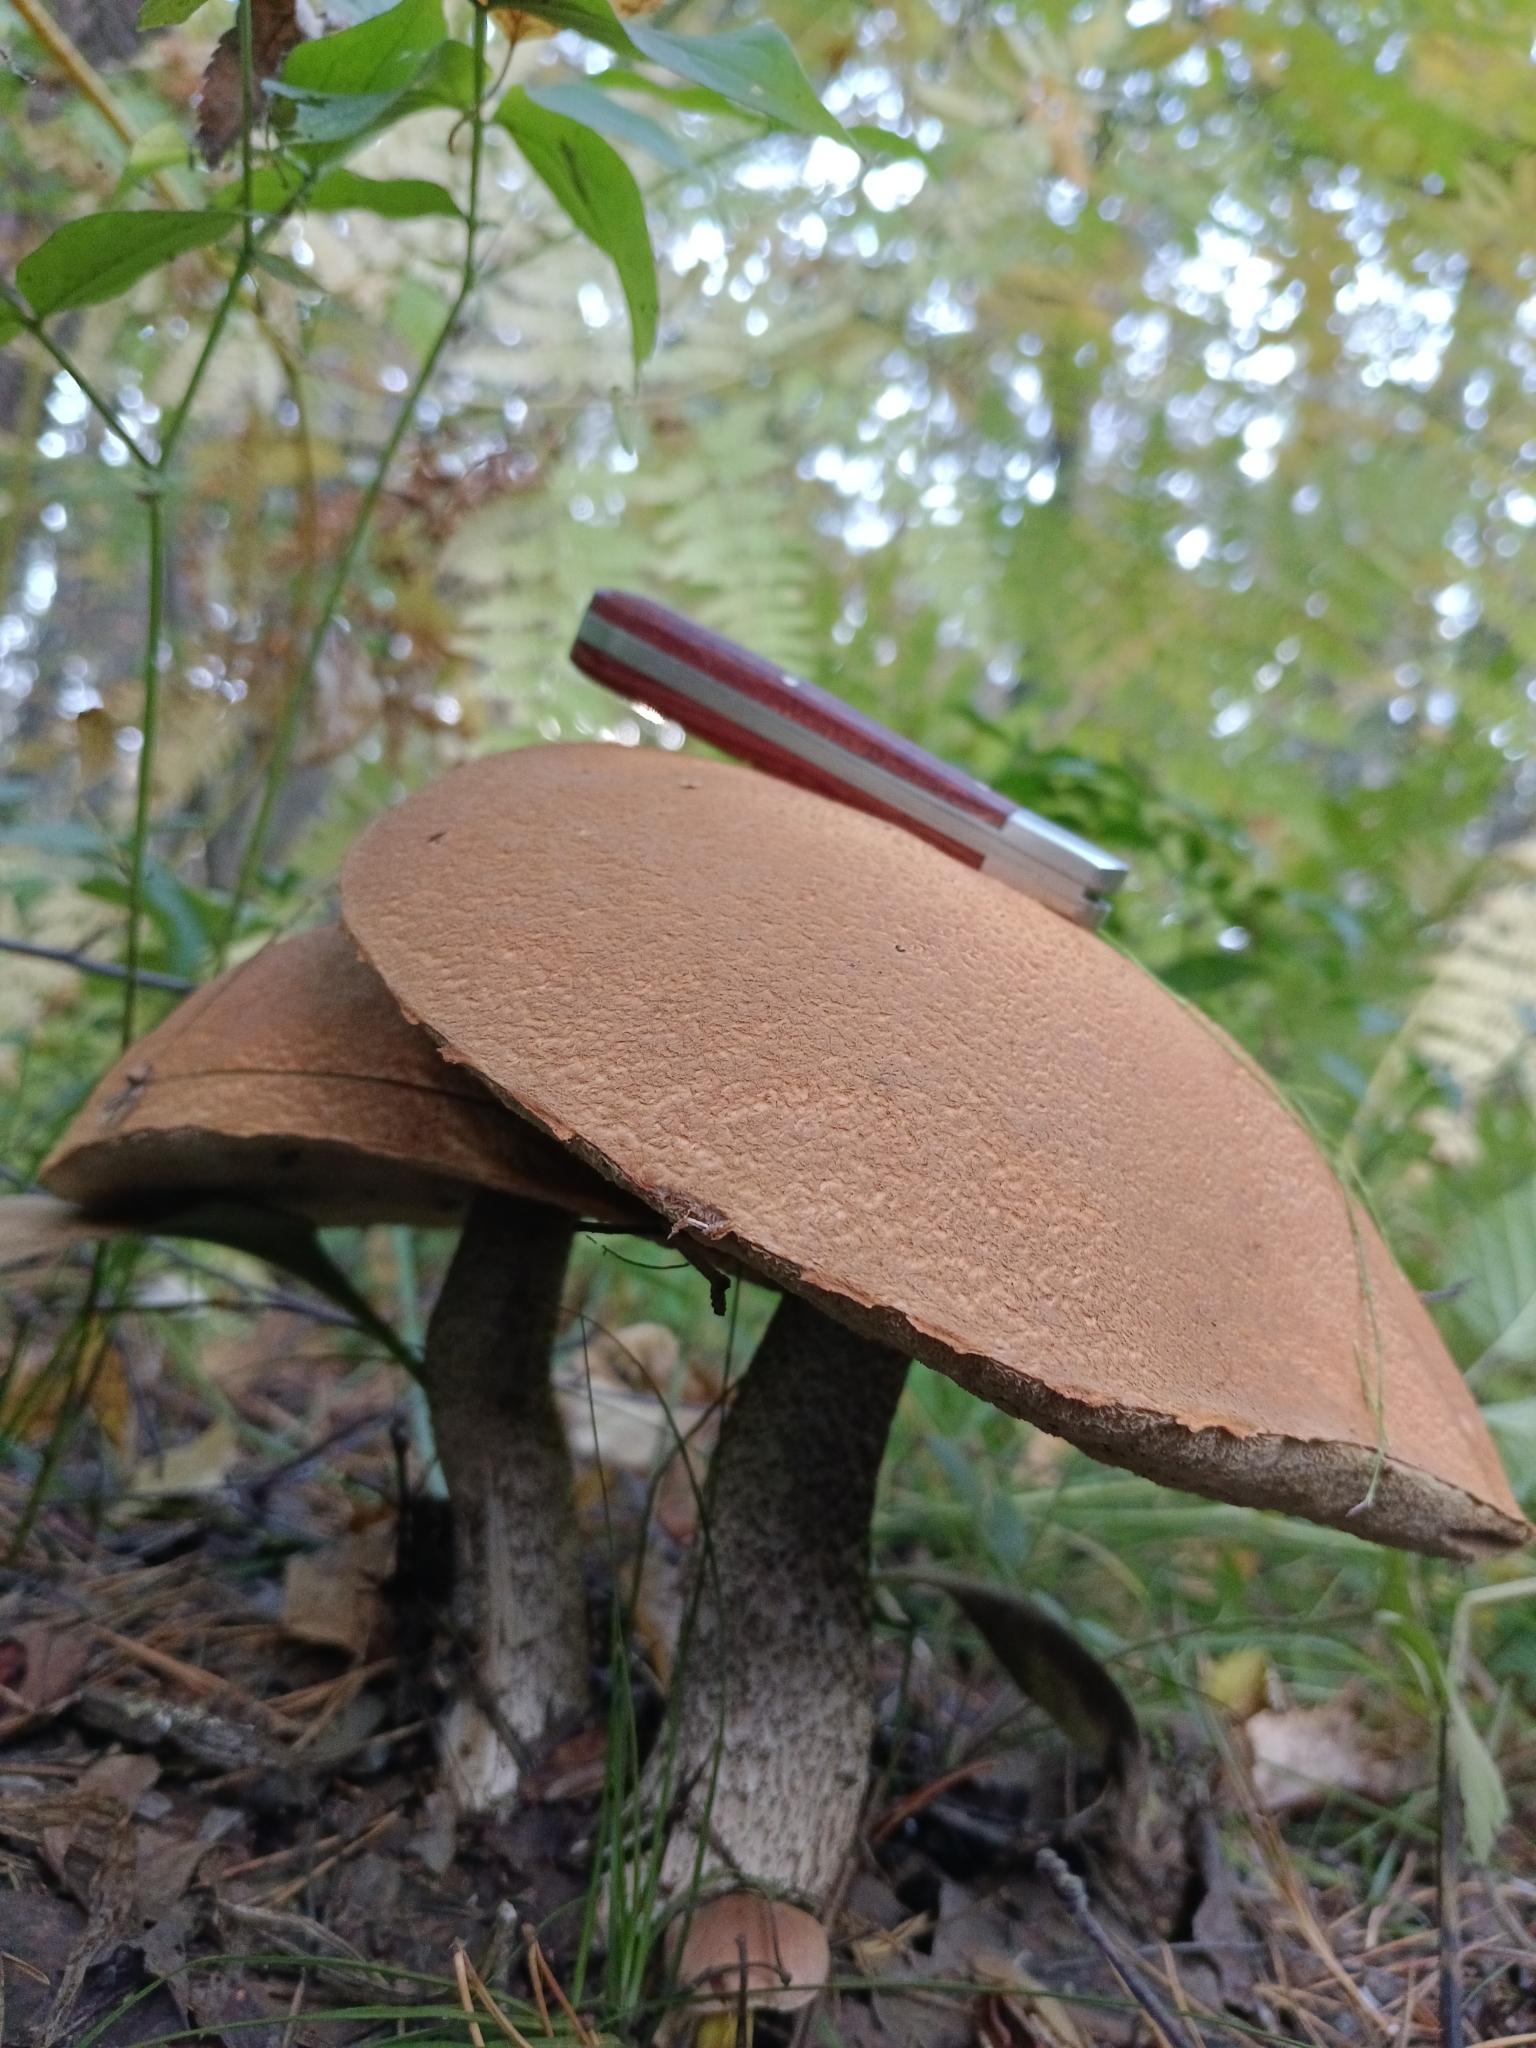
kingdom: Fungi
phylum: Basidiomycota
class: Agaricomycetes
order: Boletales
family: Boletaceae
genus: Leccinum
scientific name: Leccinum versipelle
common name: Orange birch bolete
